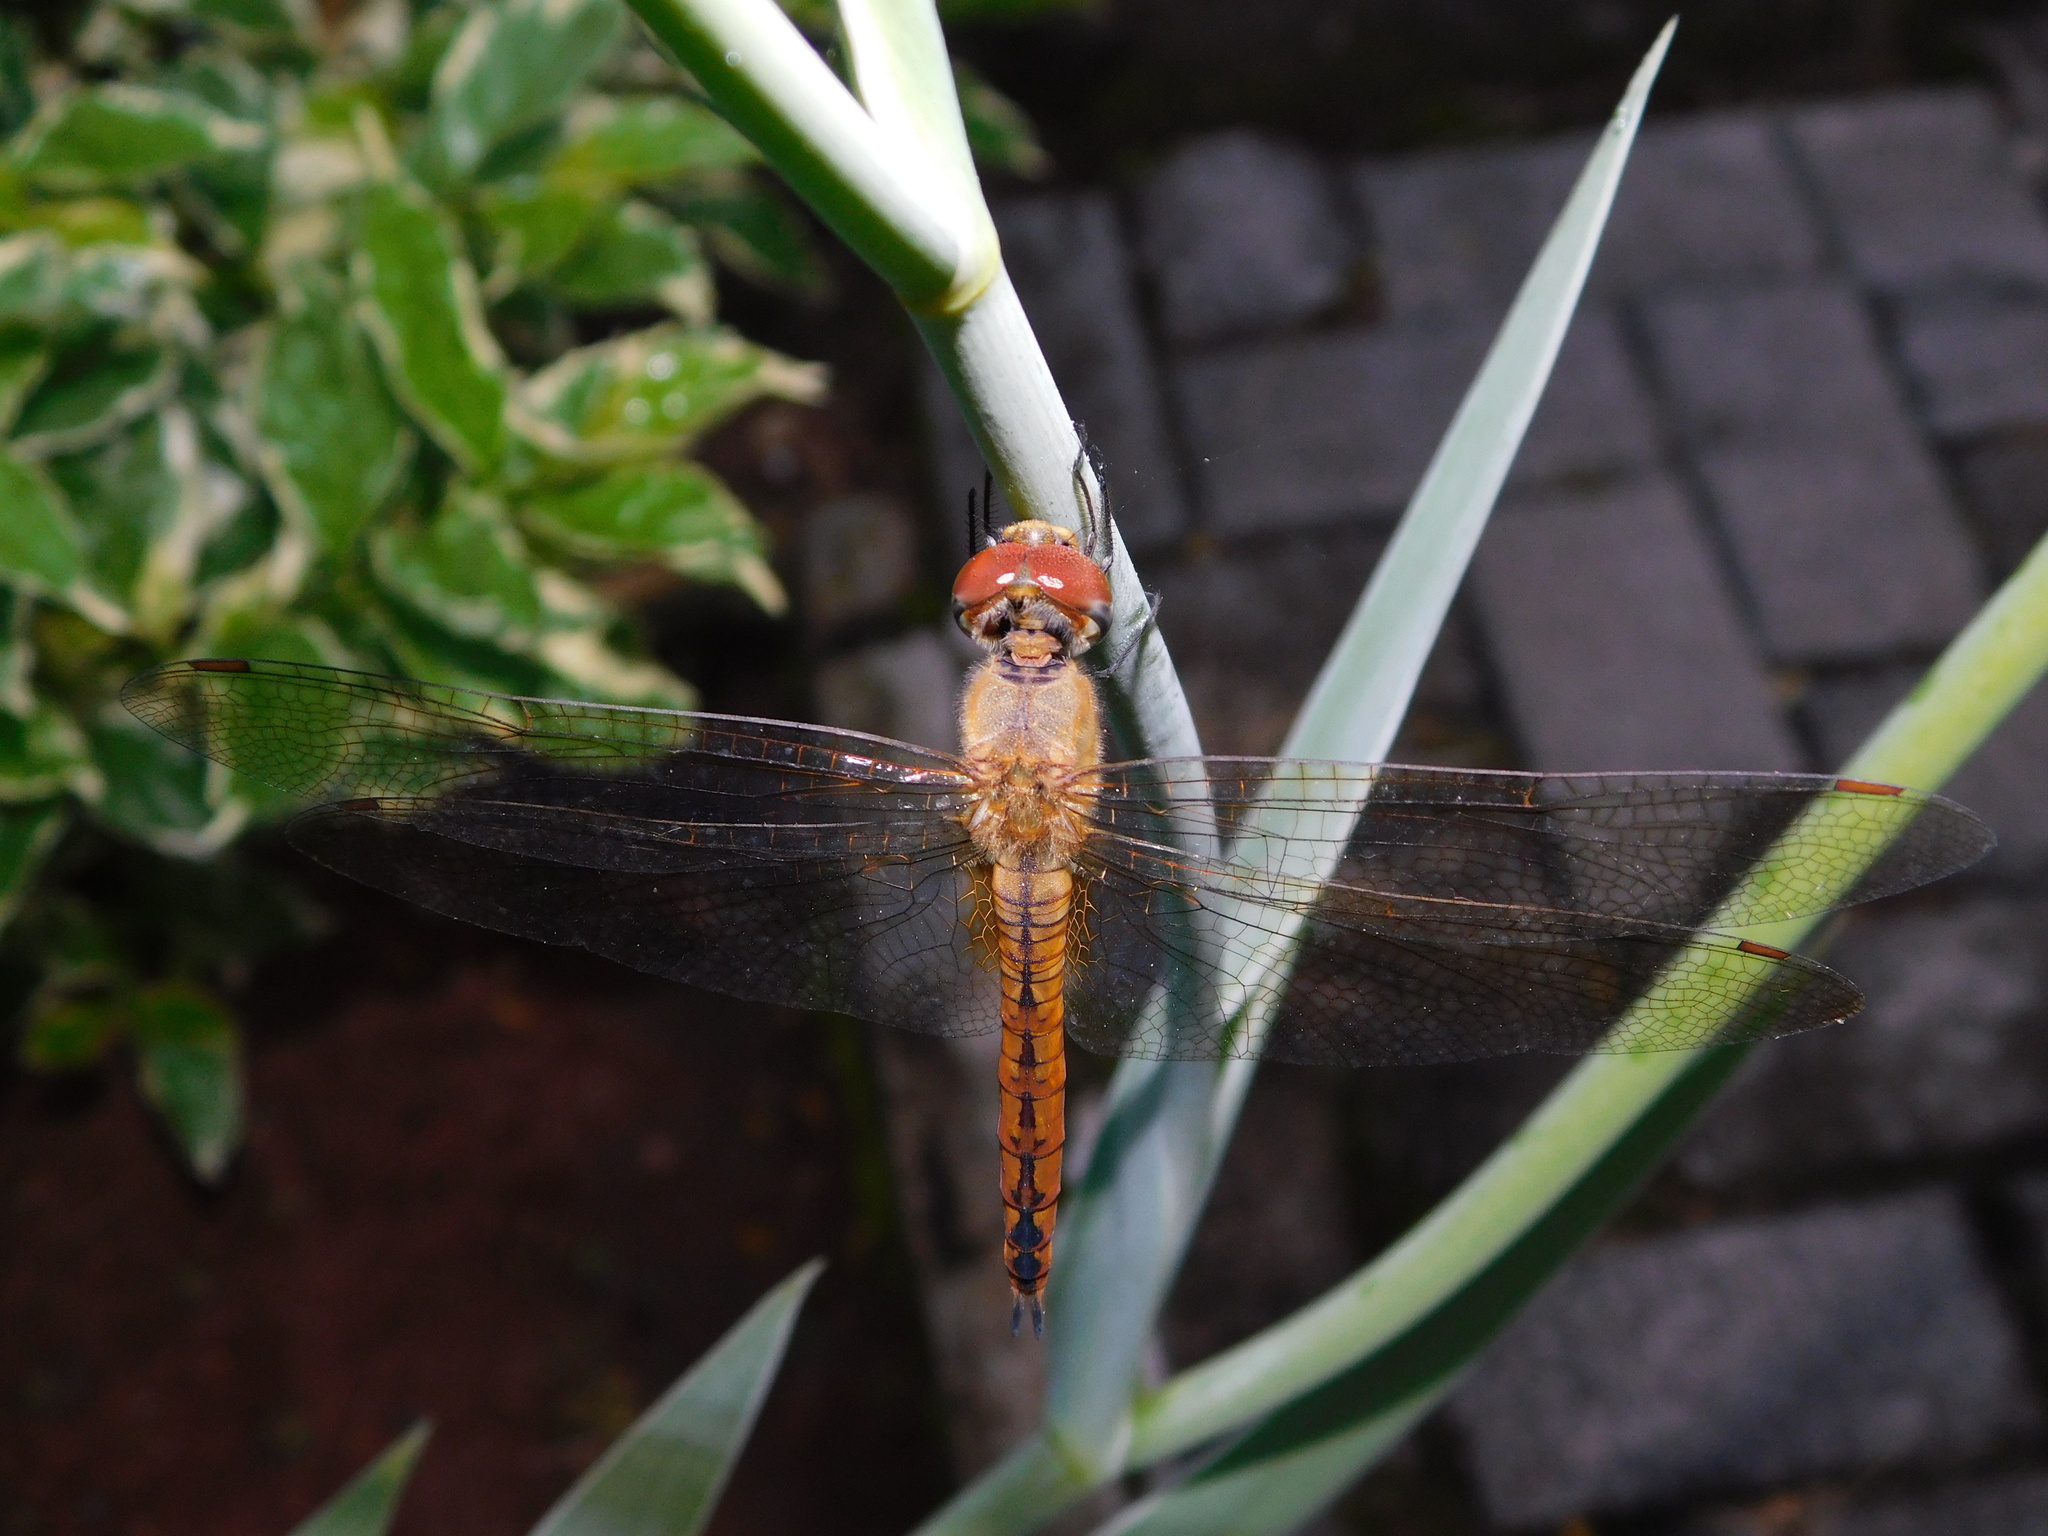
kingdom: Animalia
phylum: Arthropoda
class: Insecta
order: Odonata
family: Libellulidae
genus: Pantala
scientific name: Pantala flavescens
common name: Wandering glider
